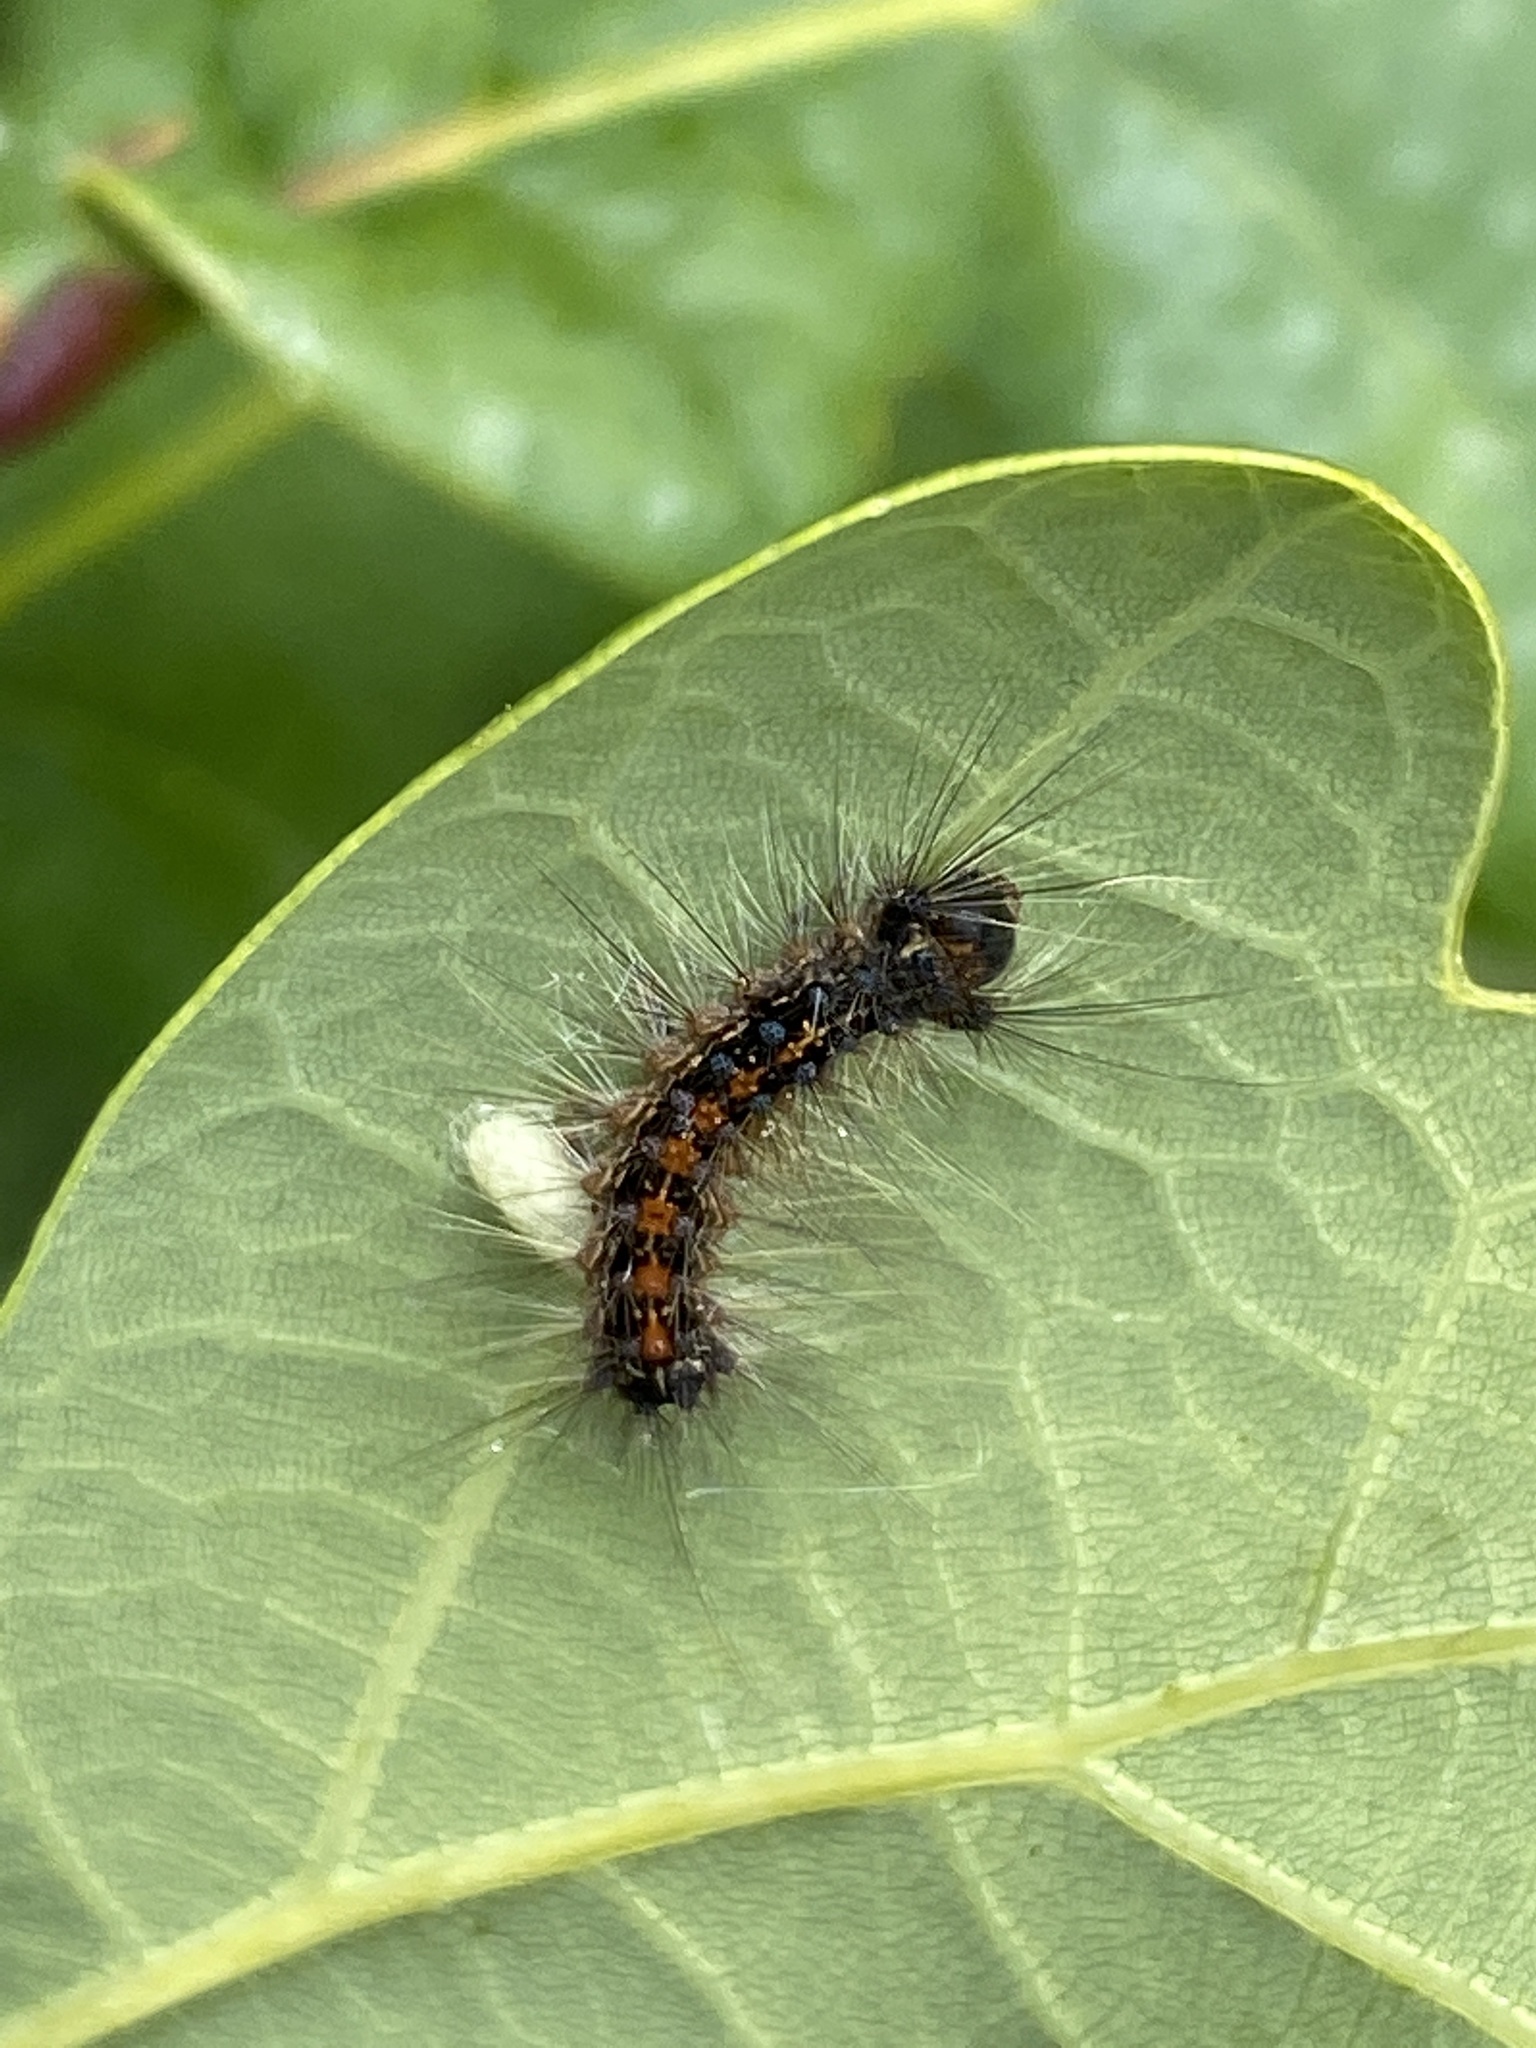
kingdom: Animalia
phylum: Arthropoda
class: Insecta
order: Lepidoptera
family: Erebidae
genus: Lymantria
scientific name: Lymantria dispar
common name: Gypsy moth
